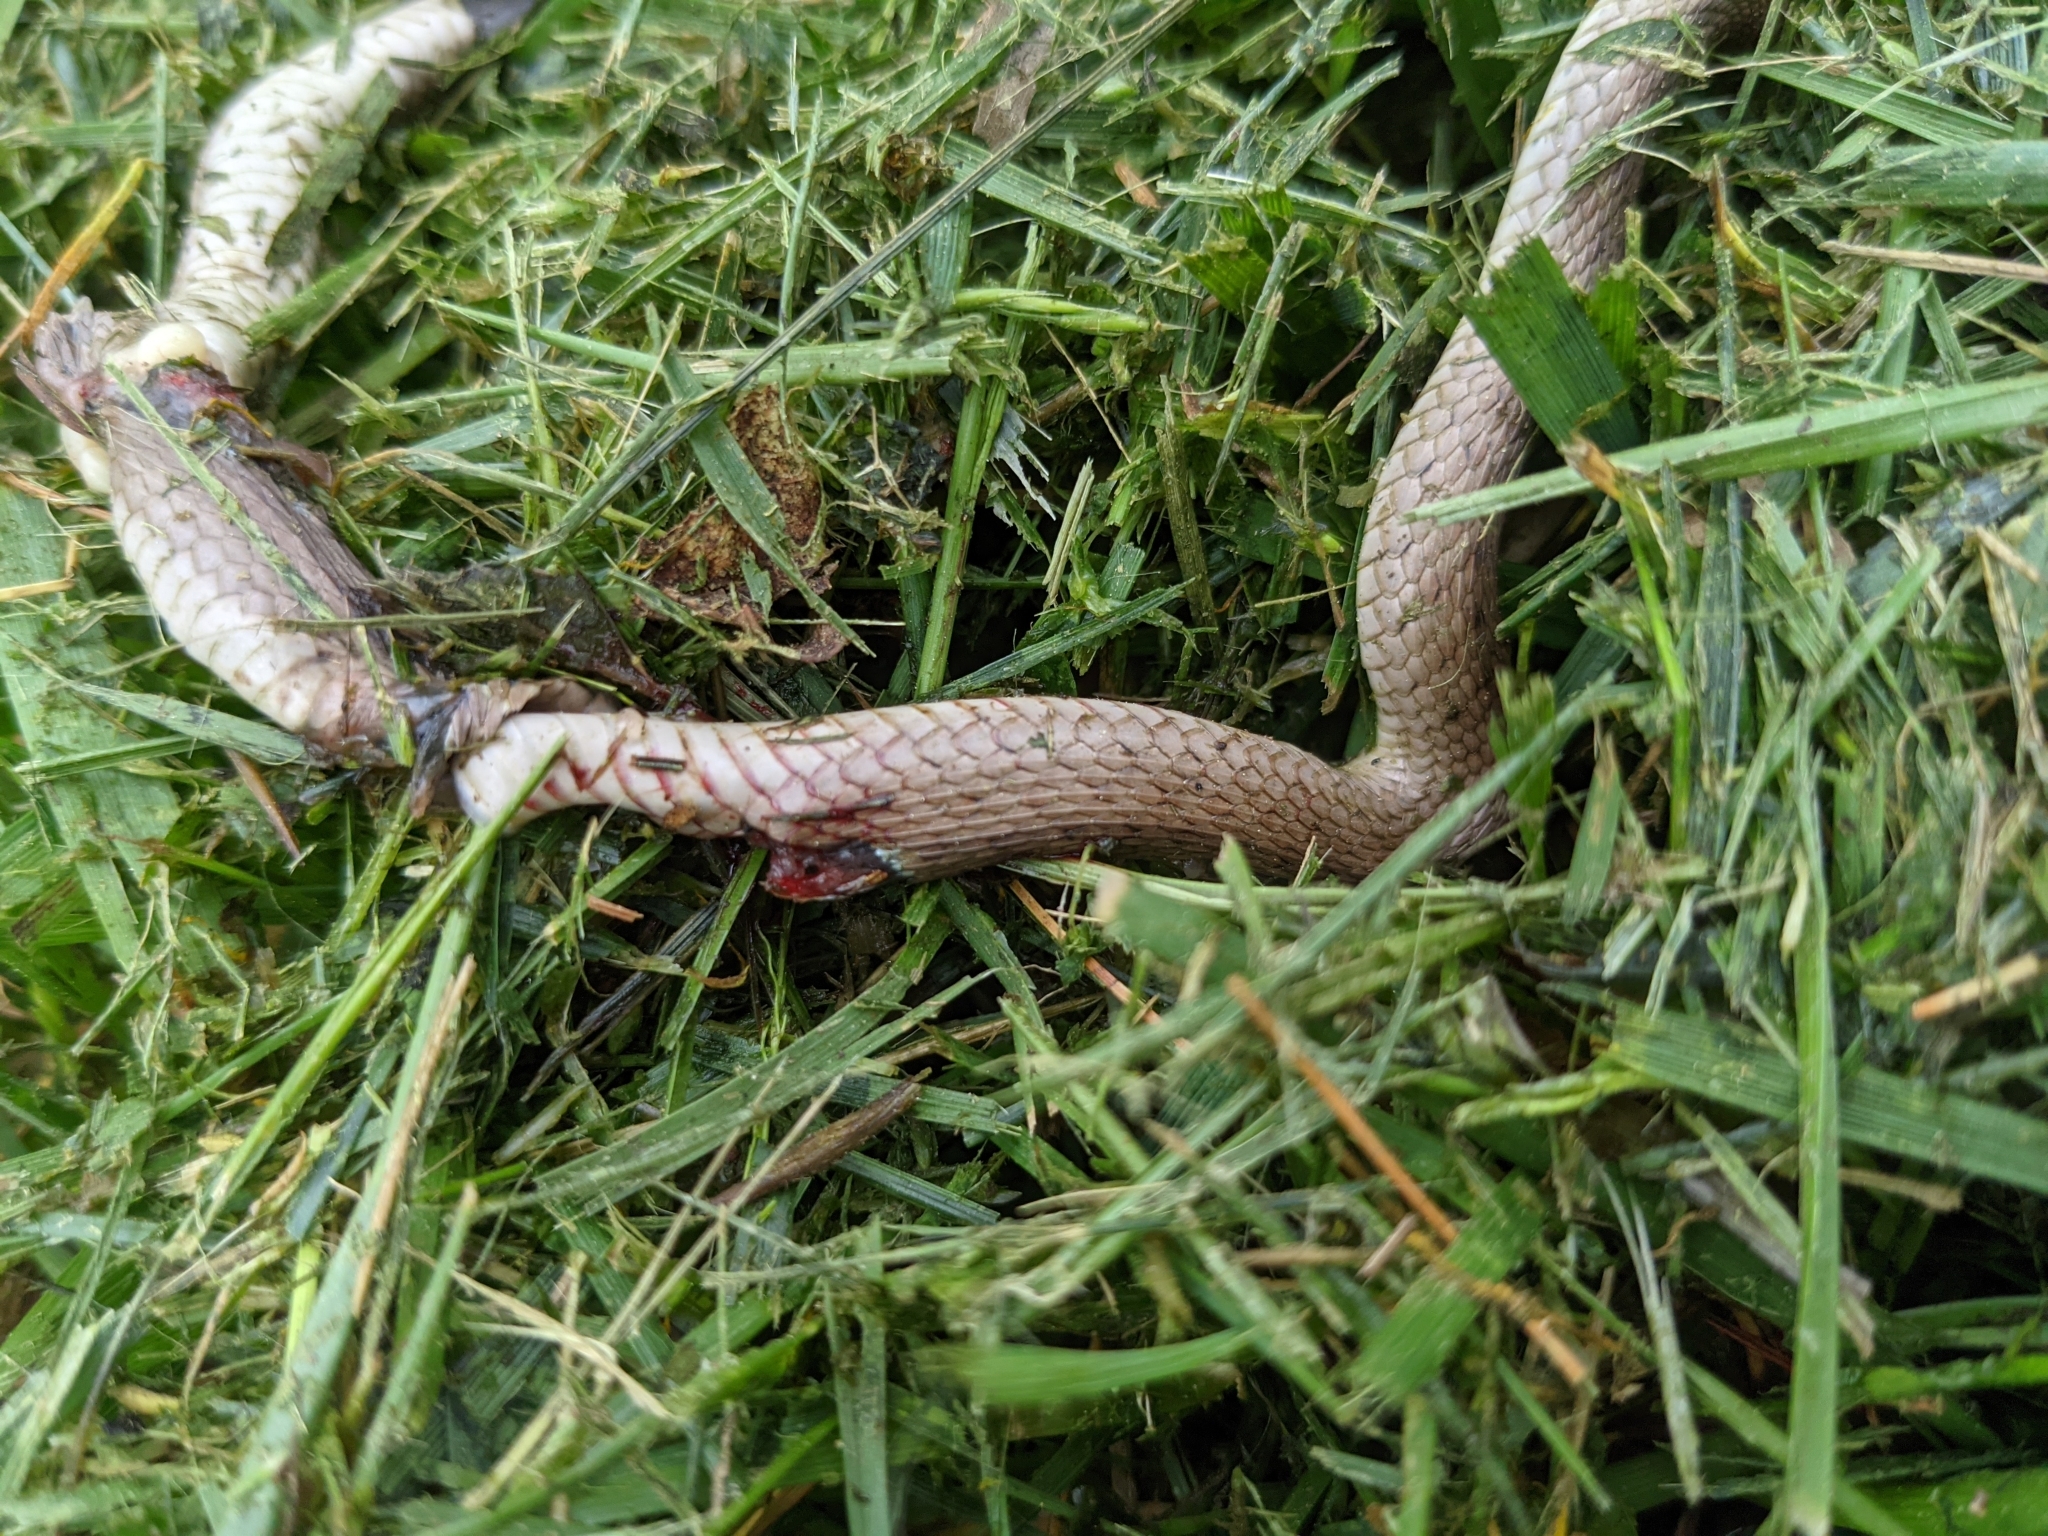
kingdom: Animalia
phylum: Chordata
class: Squamata
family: Colubridae
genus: Storeria
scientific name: Storeria dekayi
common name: (dekay’s) brown snake
